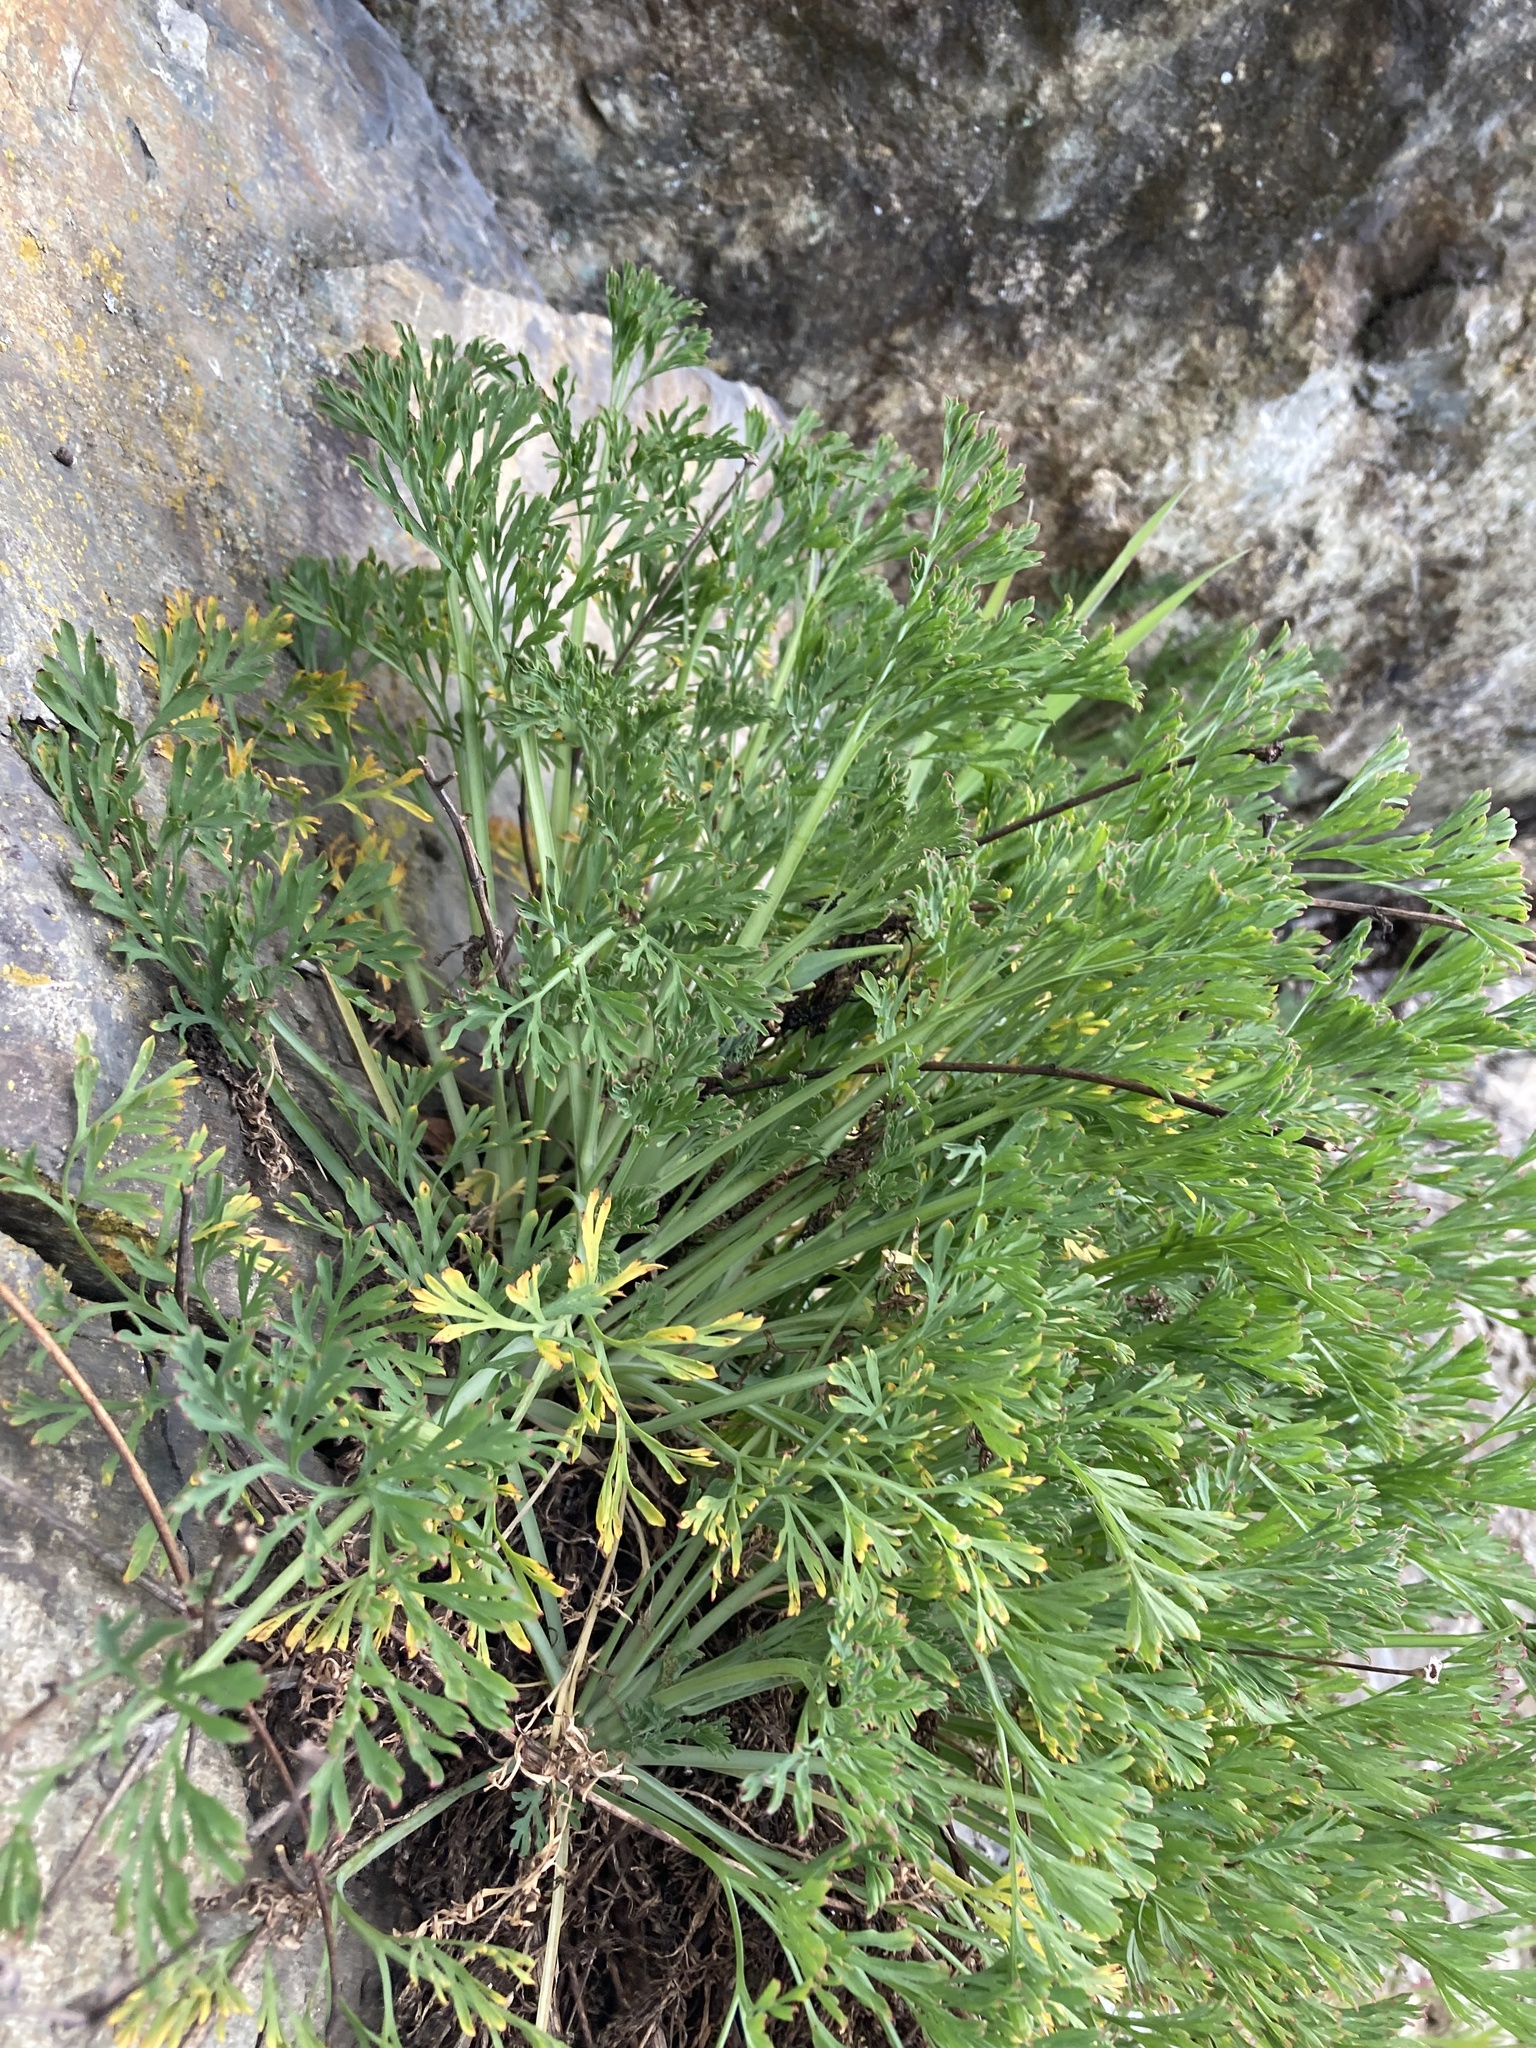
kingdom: Plantae
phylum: Tracheophyta
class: Magnoliopsida
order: Ranunculales
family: Papaveraceae
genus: Eschscholzia
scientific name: Eschscholzia californica
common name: California poppy
